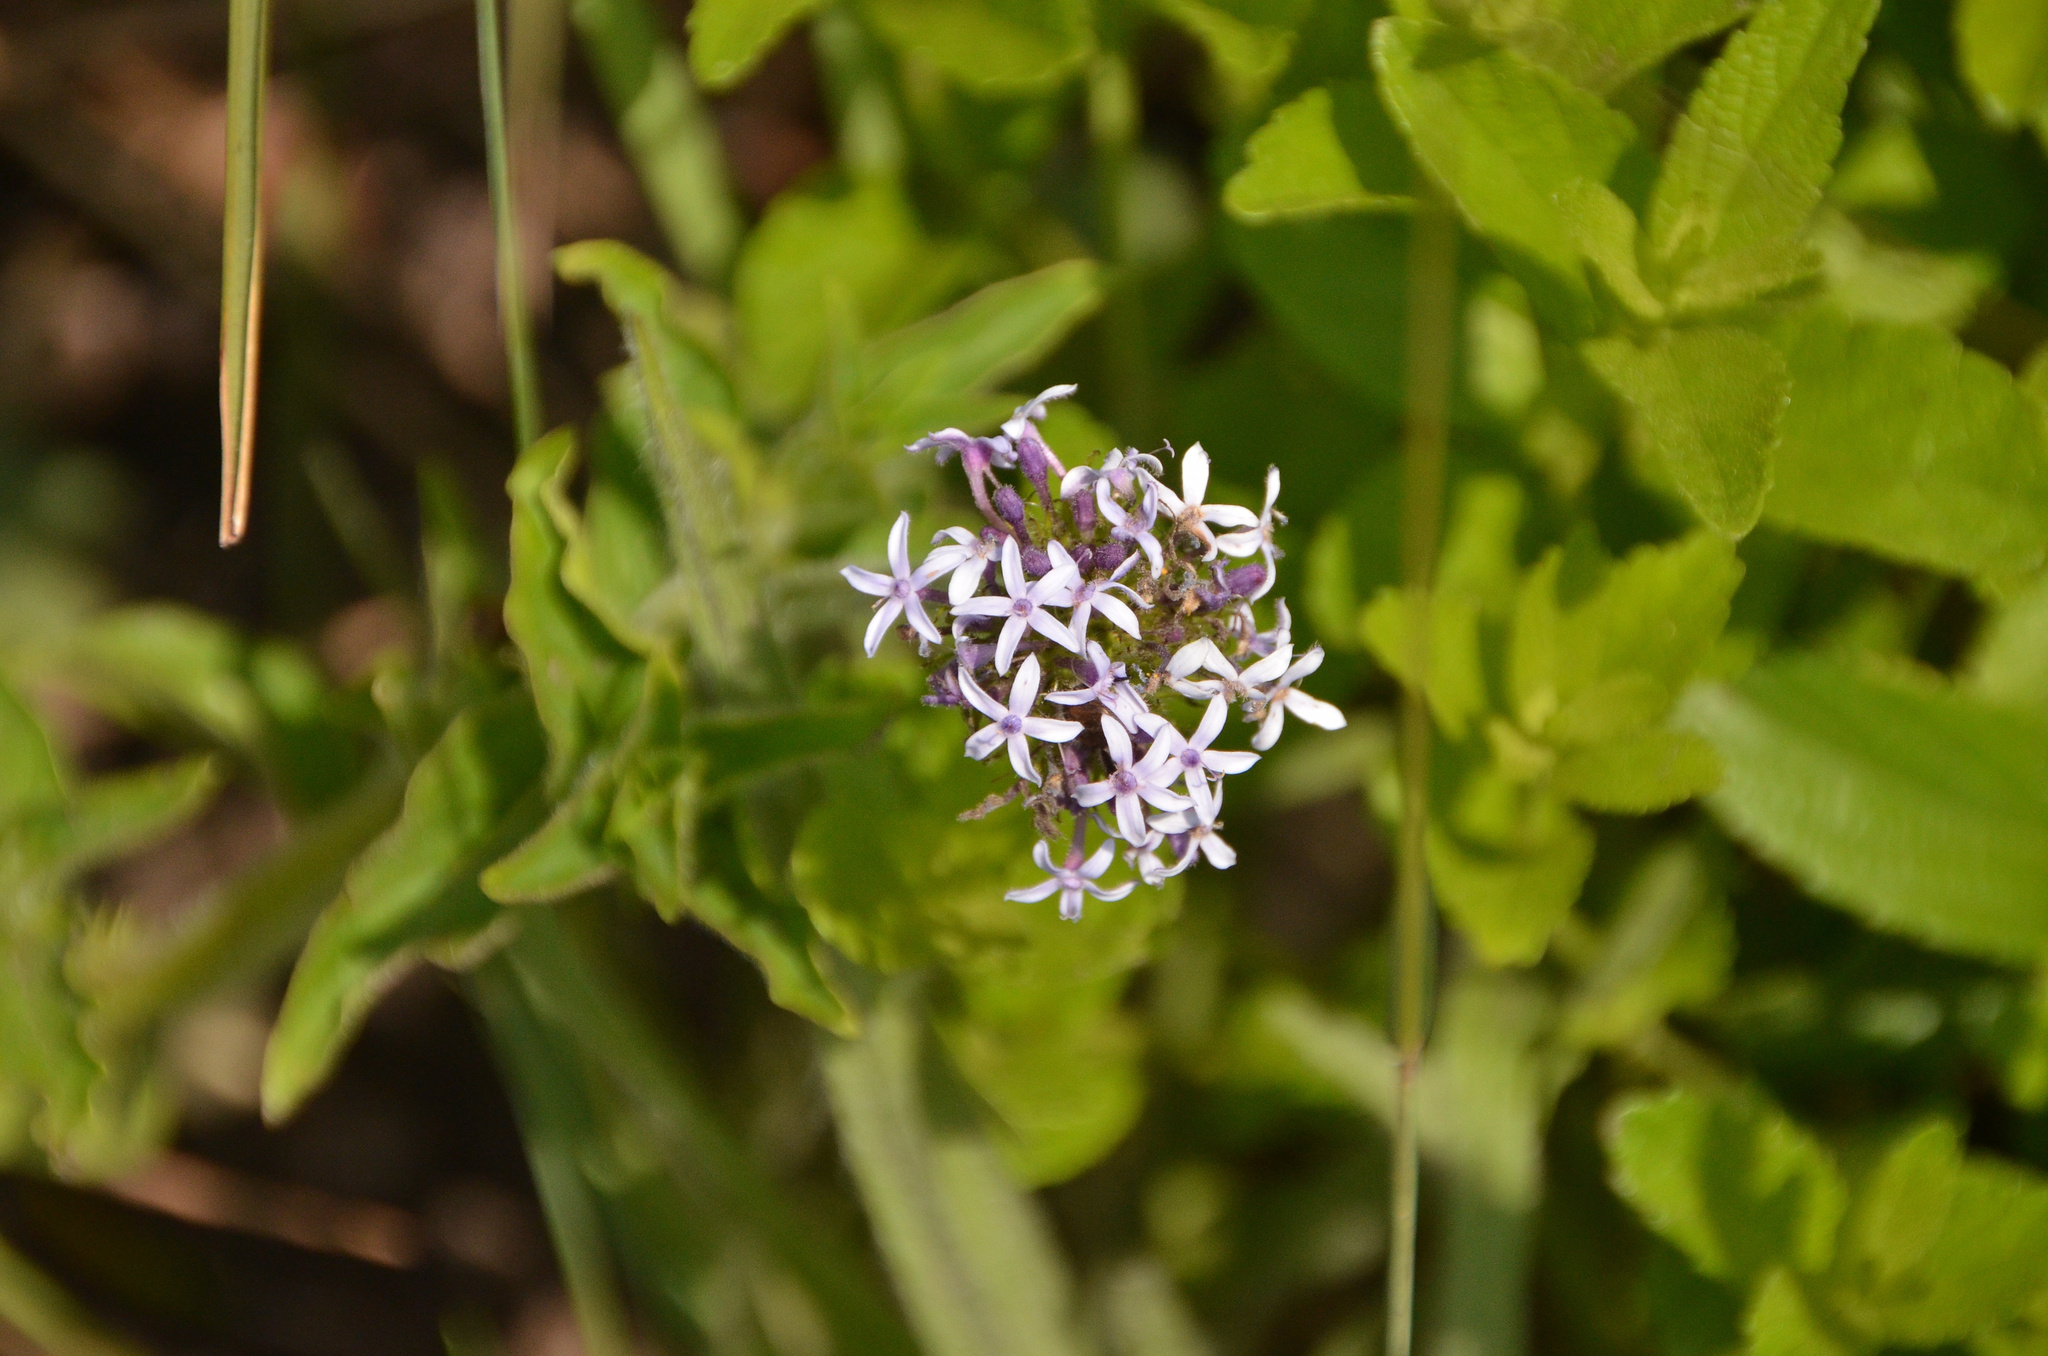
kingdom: Plantae
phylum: Tracheophyta
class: Magnoliopsida
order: Gentianales
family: Rubiaceae
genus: Pentanisia
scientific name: Pentanisia prunelloides
